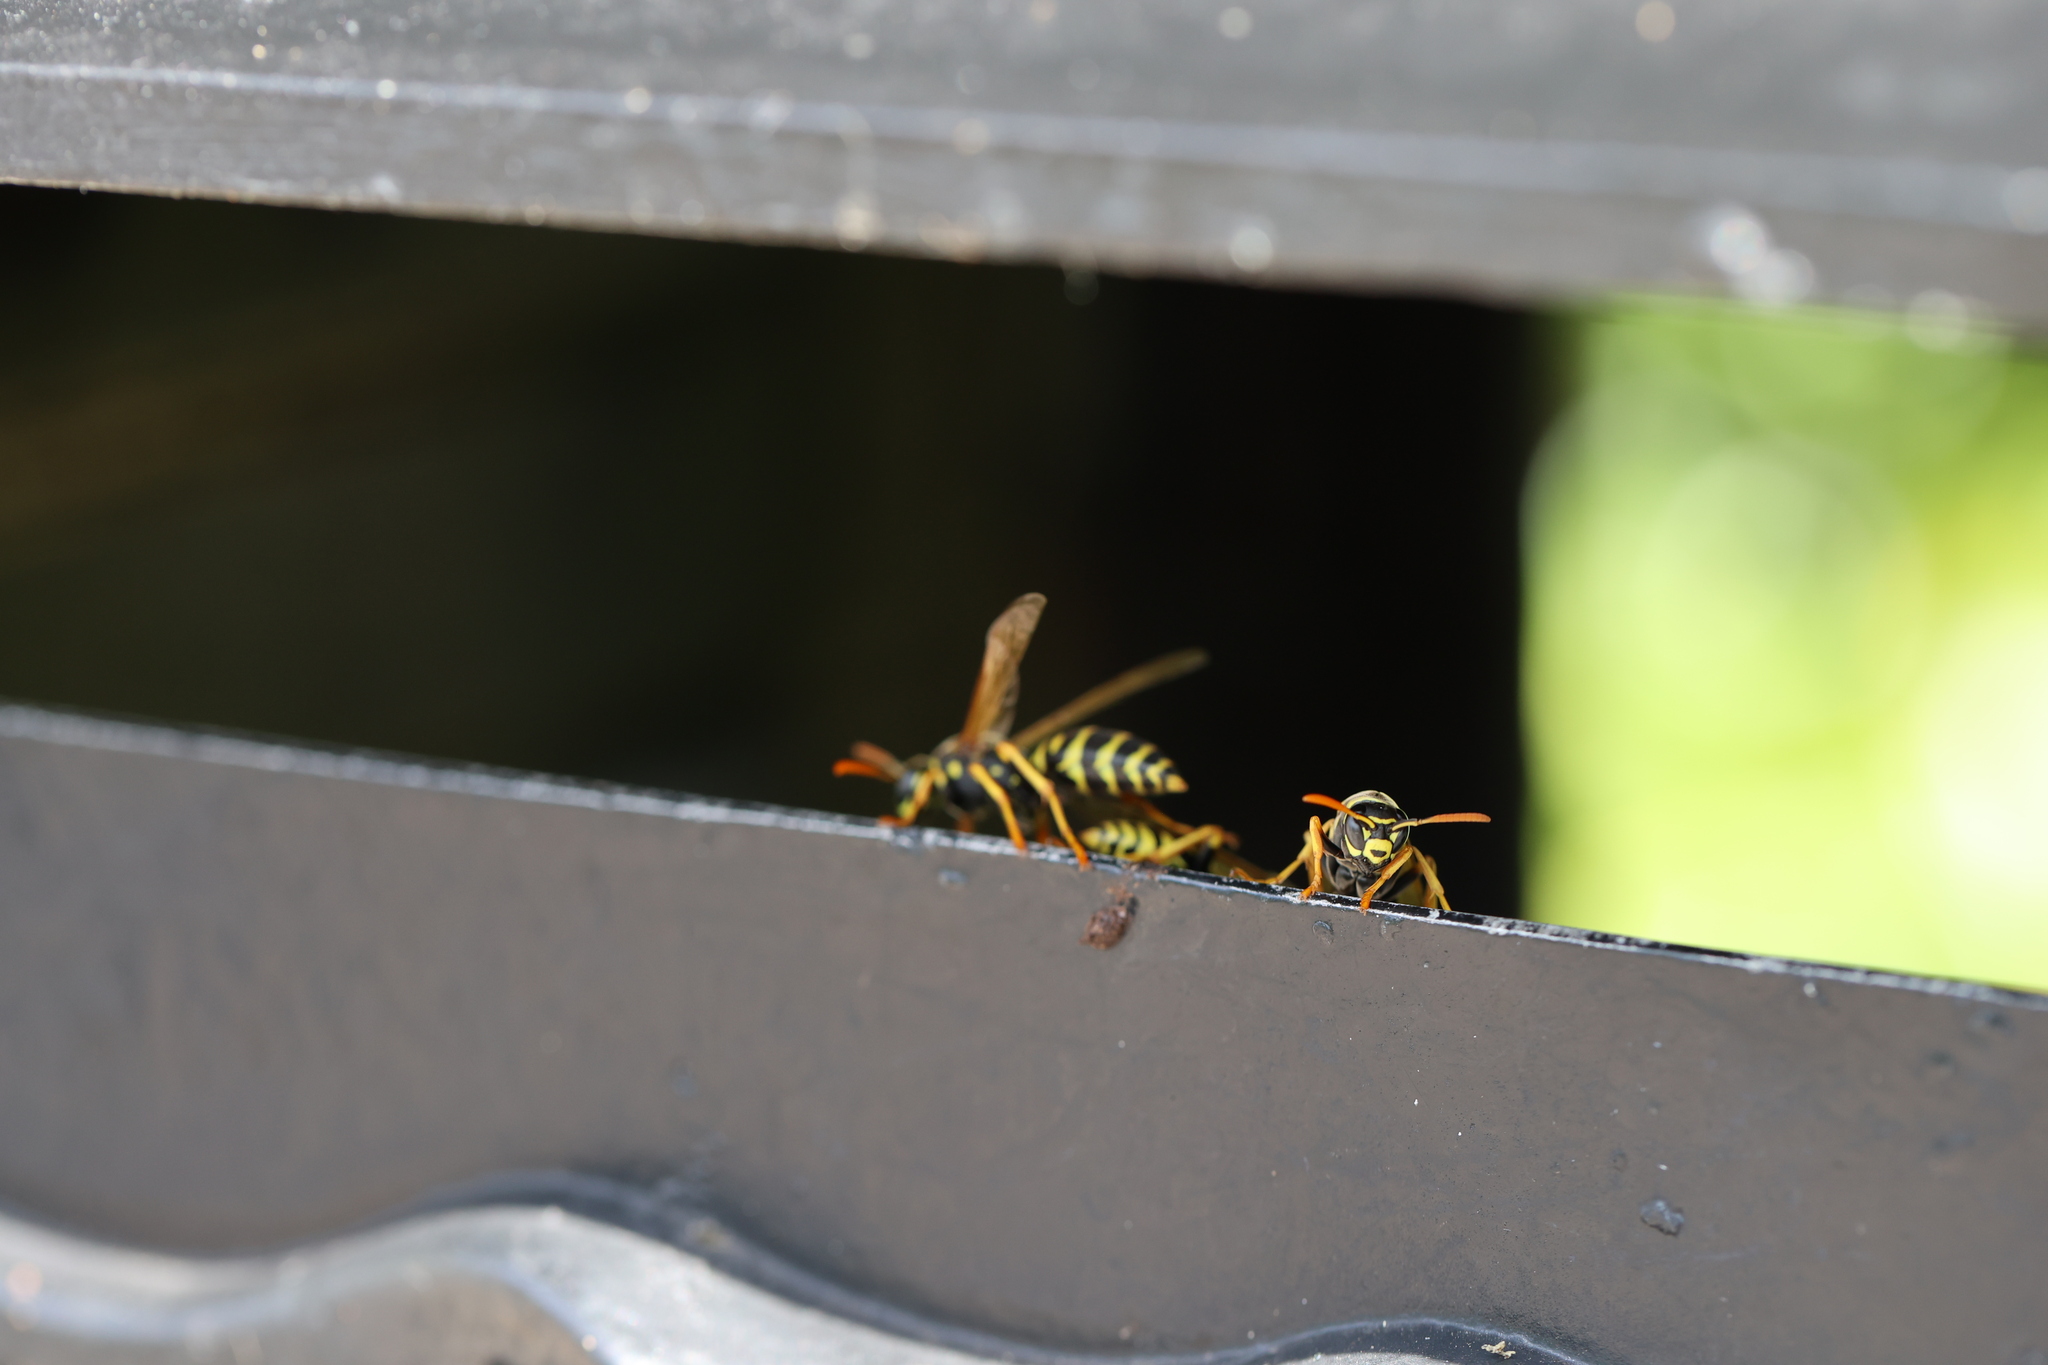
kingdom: Animalia
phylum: Arthropoda
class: Insecta
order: Hymenoptera
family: Eumenidae
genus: Polistes
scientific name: Polistes dominula
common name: Paper wasp
